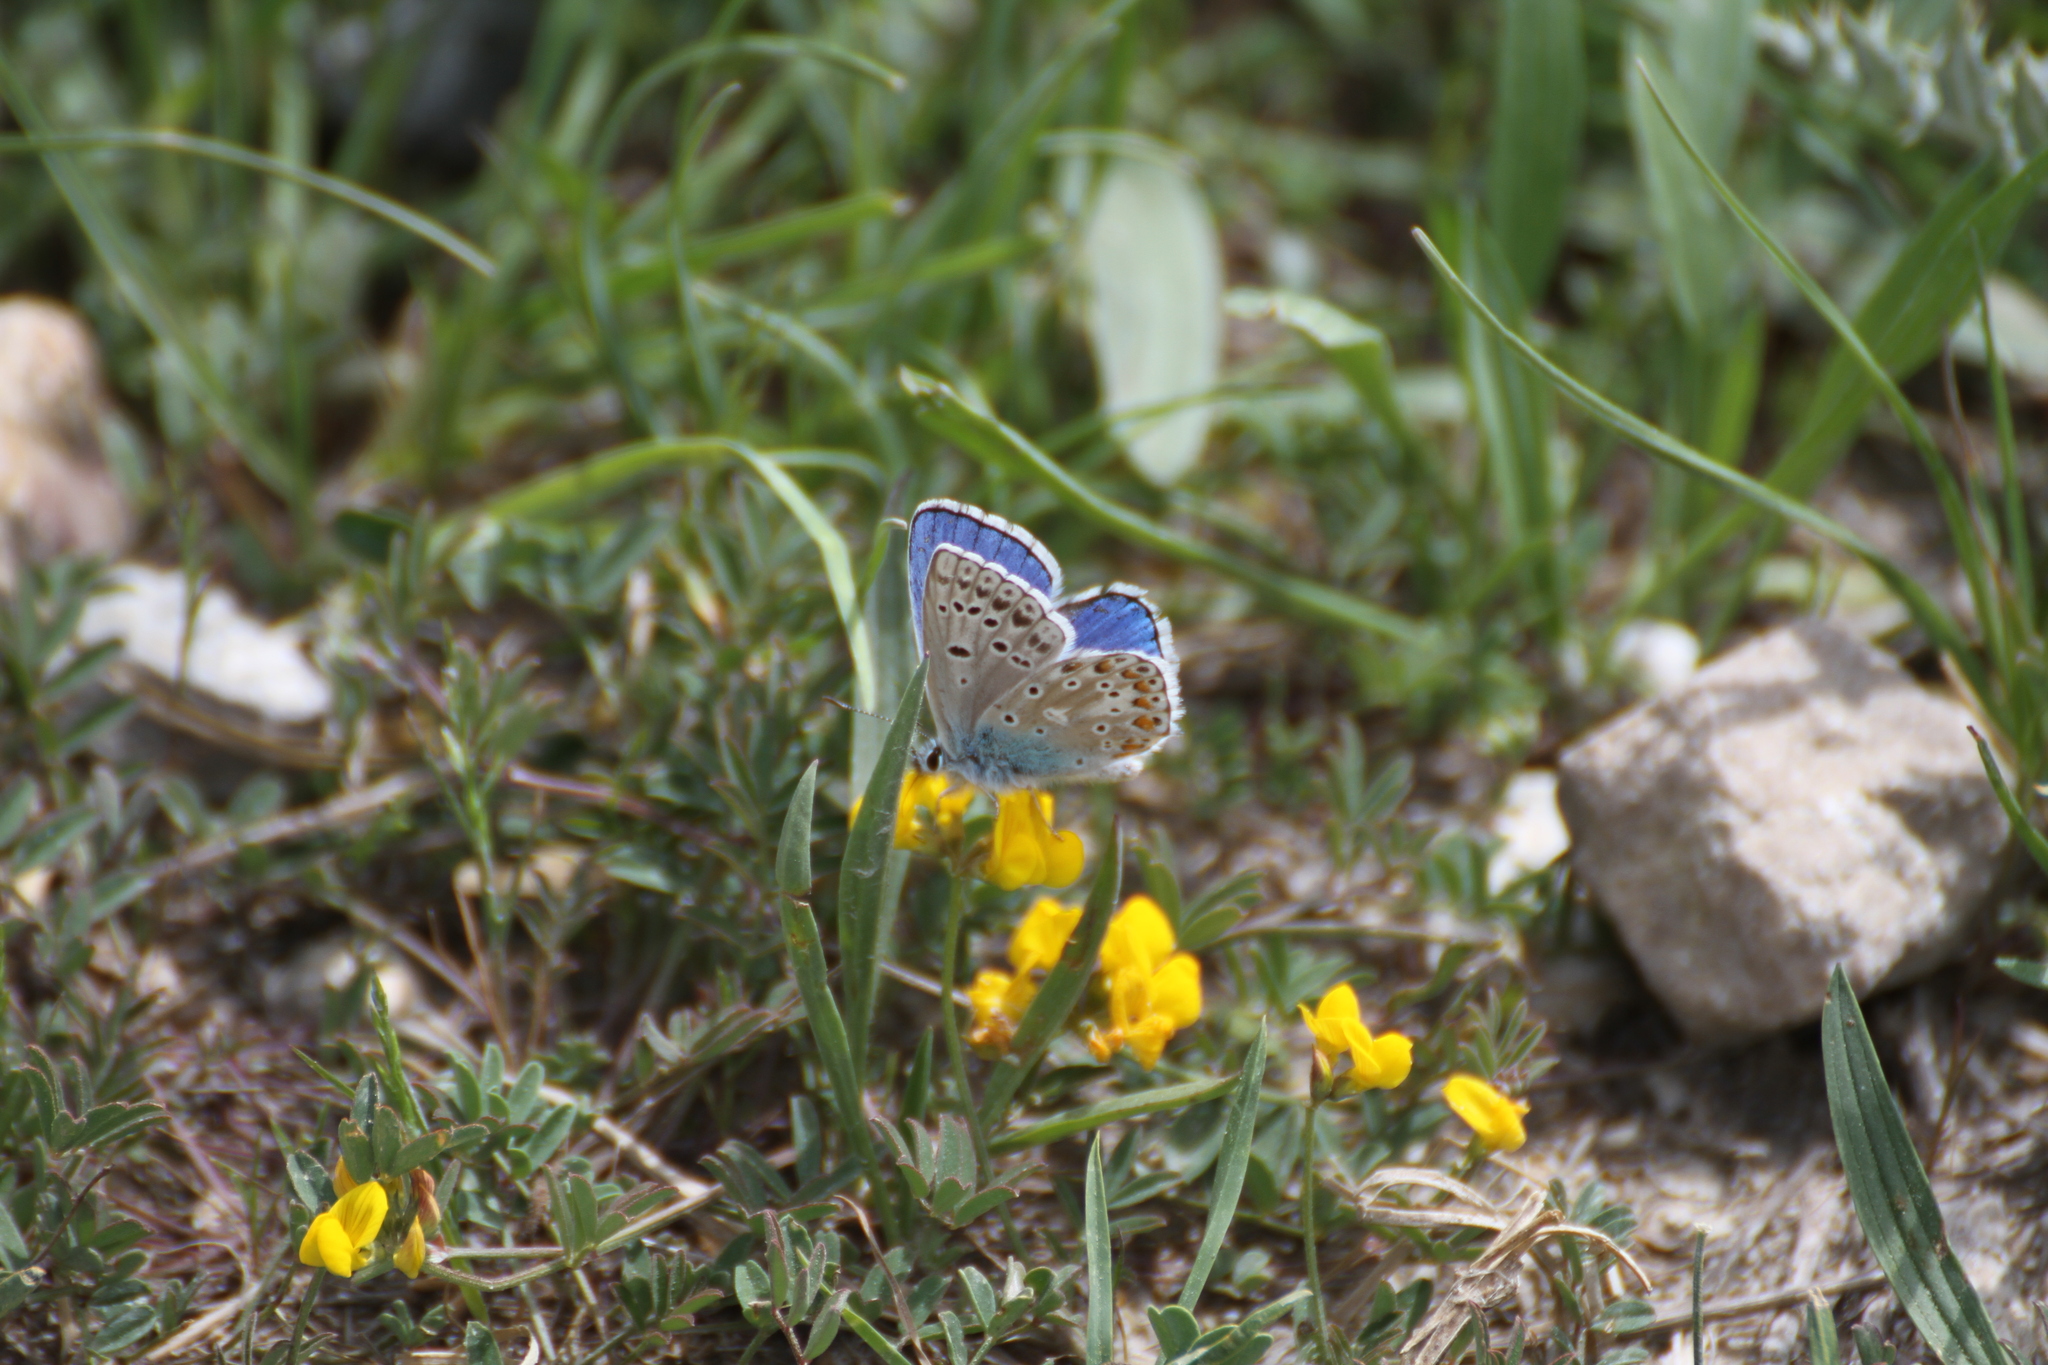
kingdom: Animalia
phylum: Arthropoda
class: Insecta
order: Lepidoptera
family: Lycaenidae
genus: Lysandra
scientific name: Lysandra bellargus
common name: Adonis blue
